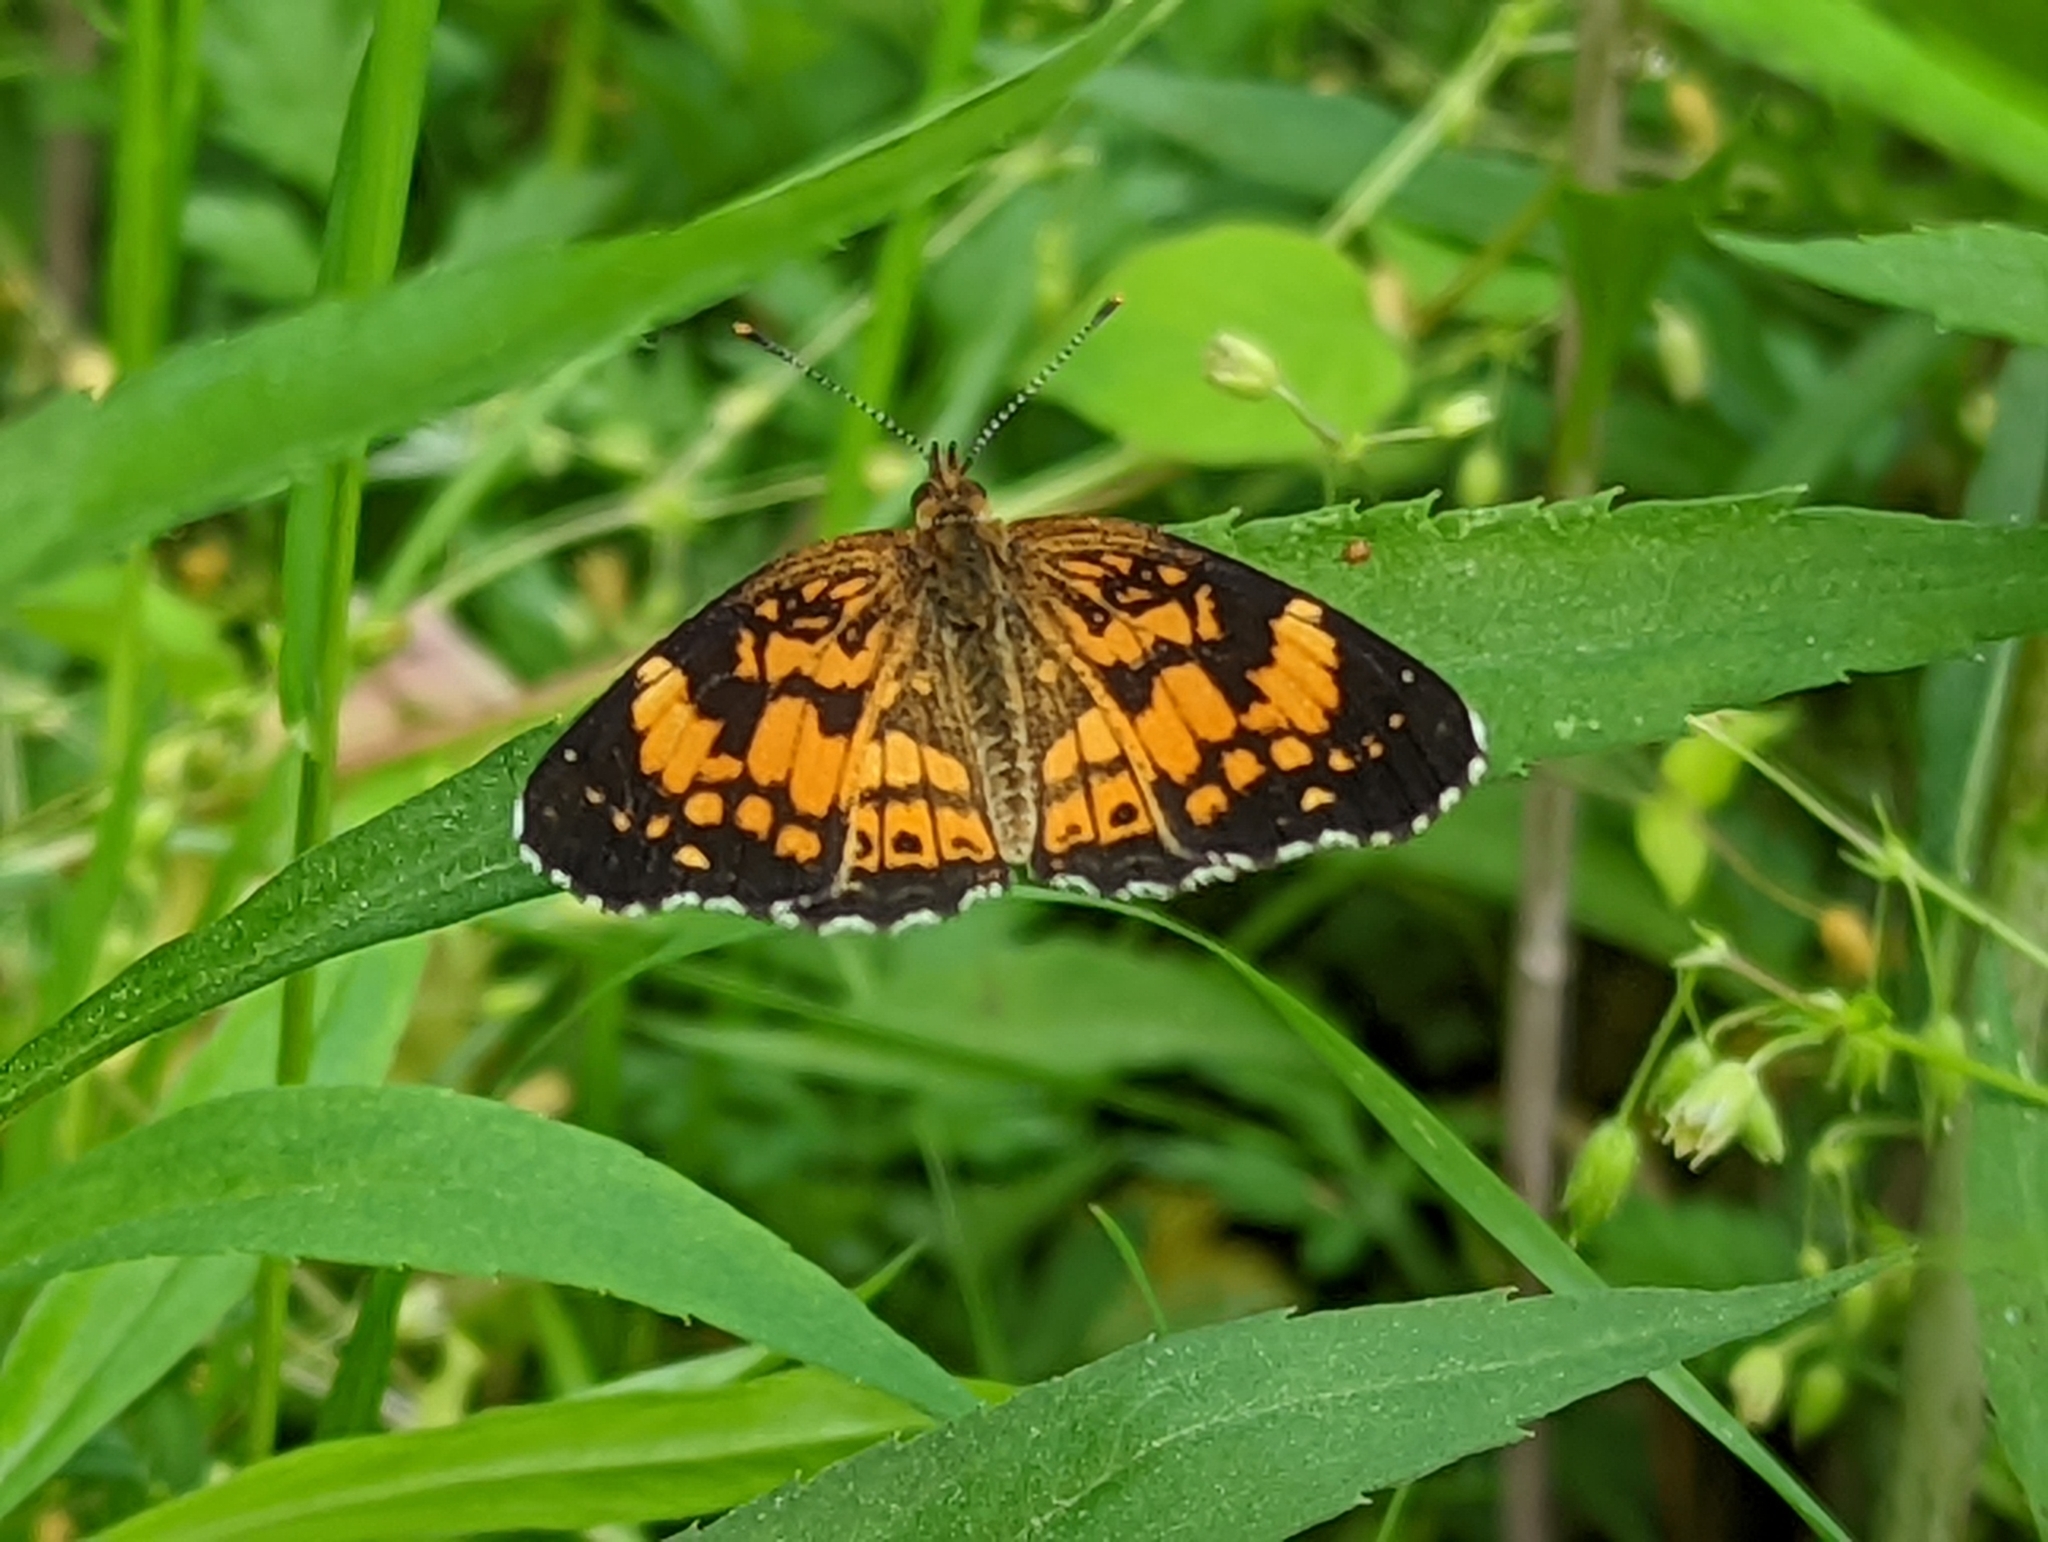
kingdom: Animalia
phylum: Arthropoda
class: Insecta
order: Lepidoptera
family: Nymphalidae
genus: Chlosyne
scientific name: Chlosyne nycteis
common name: Silvery checkerspot
